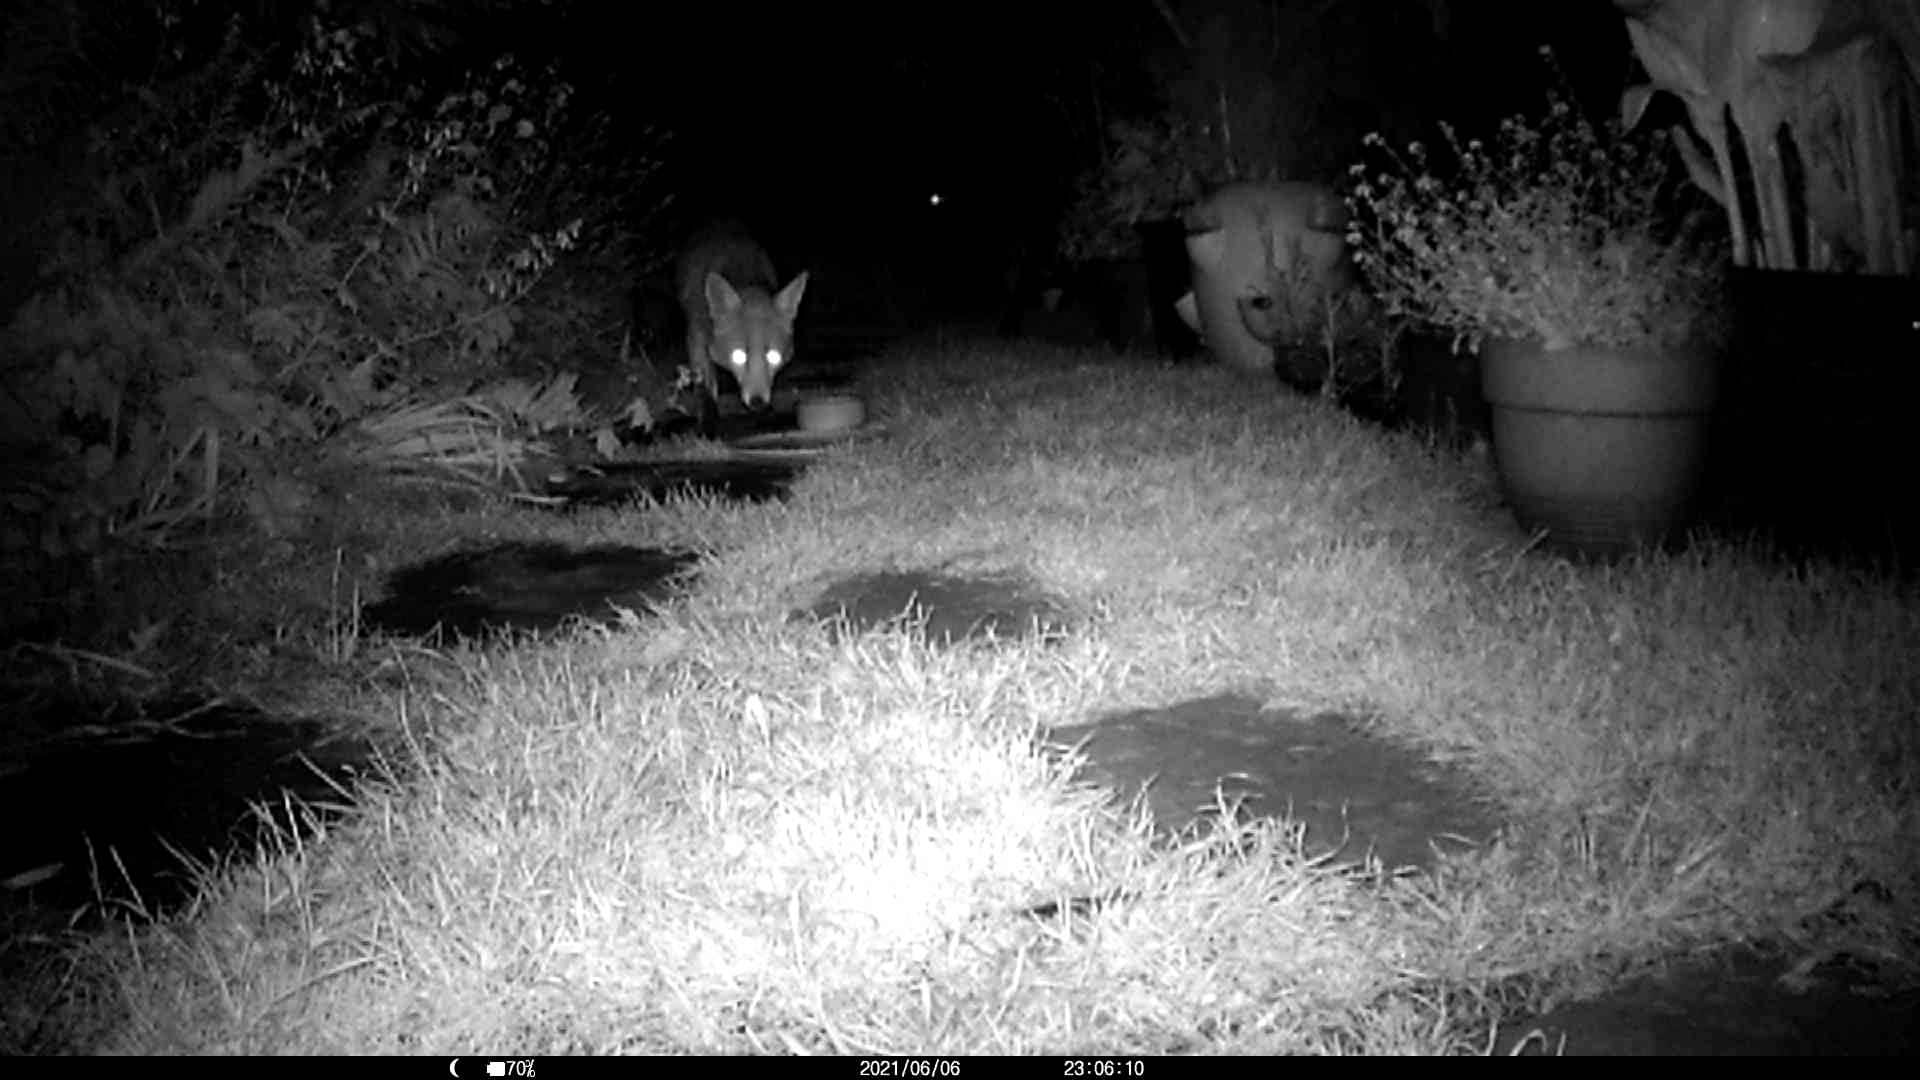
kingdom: Animalia
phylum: Chordata
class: Mammalia
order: Carnivora
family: Canidae
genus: Vulpes
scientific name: Vulpes vulpes
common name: Red fox
